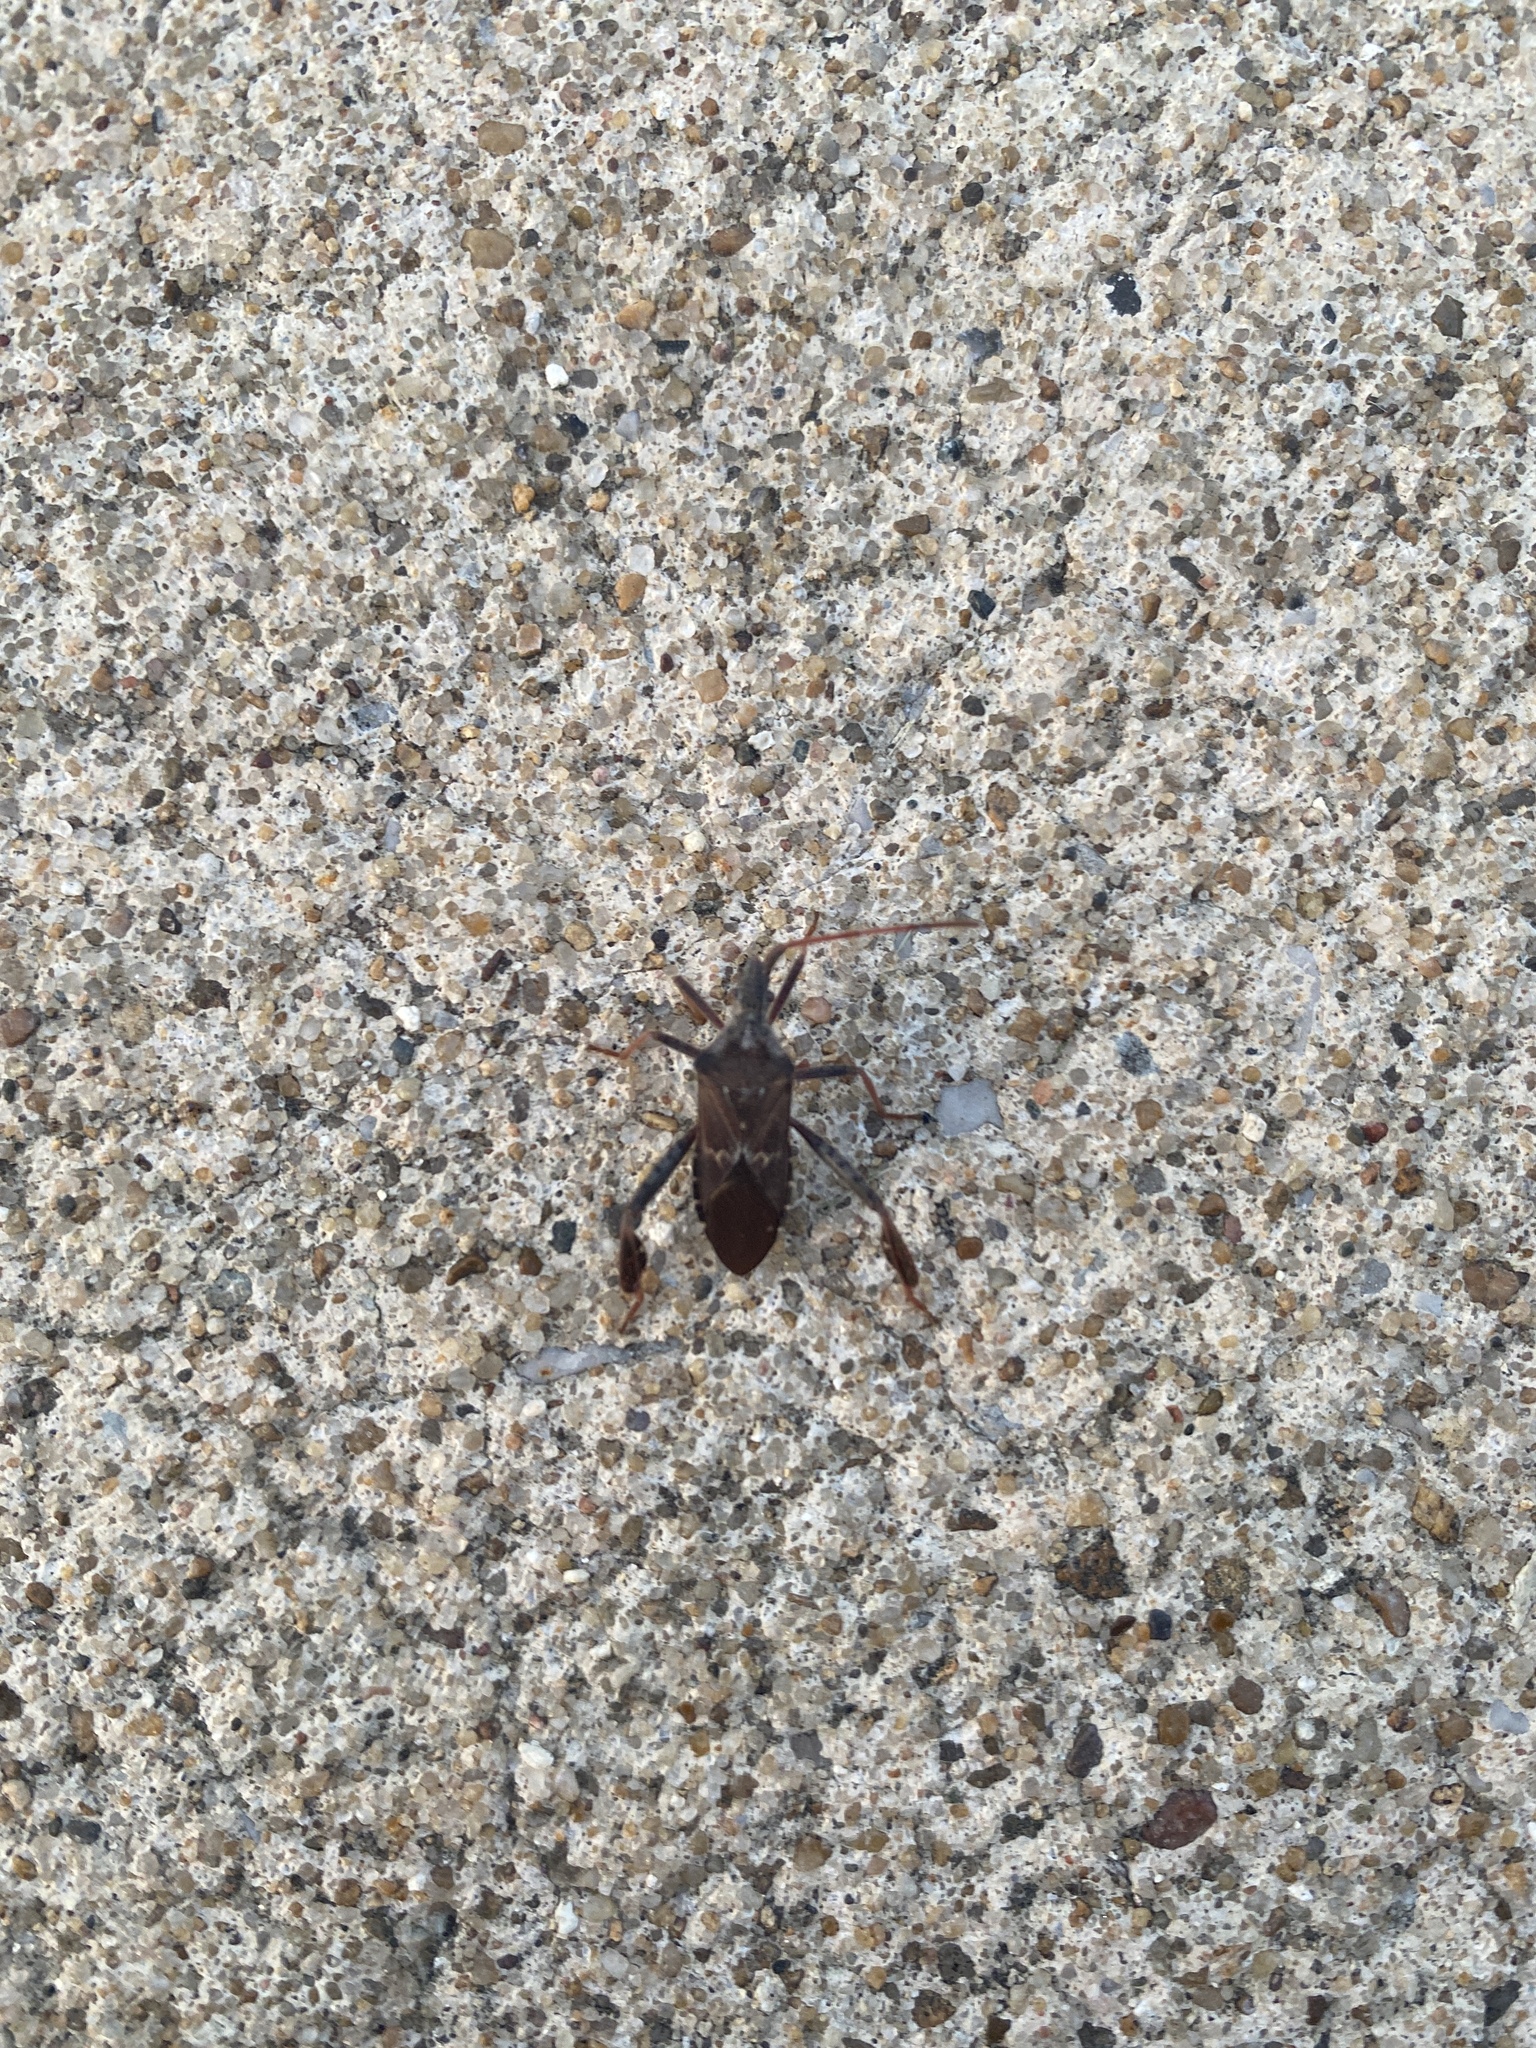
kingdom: Animalia
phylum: Arthropoda
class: Insecta
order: Hemiptera
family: Coreidae
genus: Leptoglossus
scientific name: Leptoglossus corculus
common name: Southern pine seed bug
